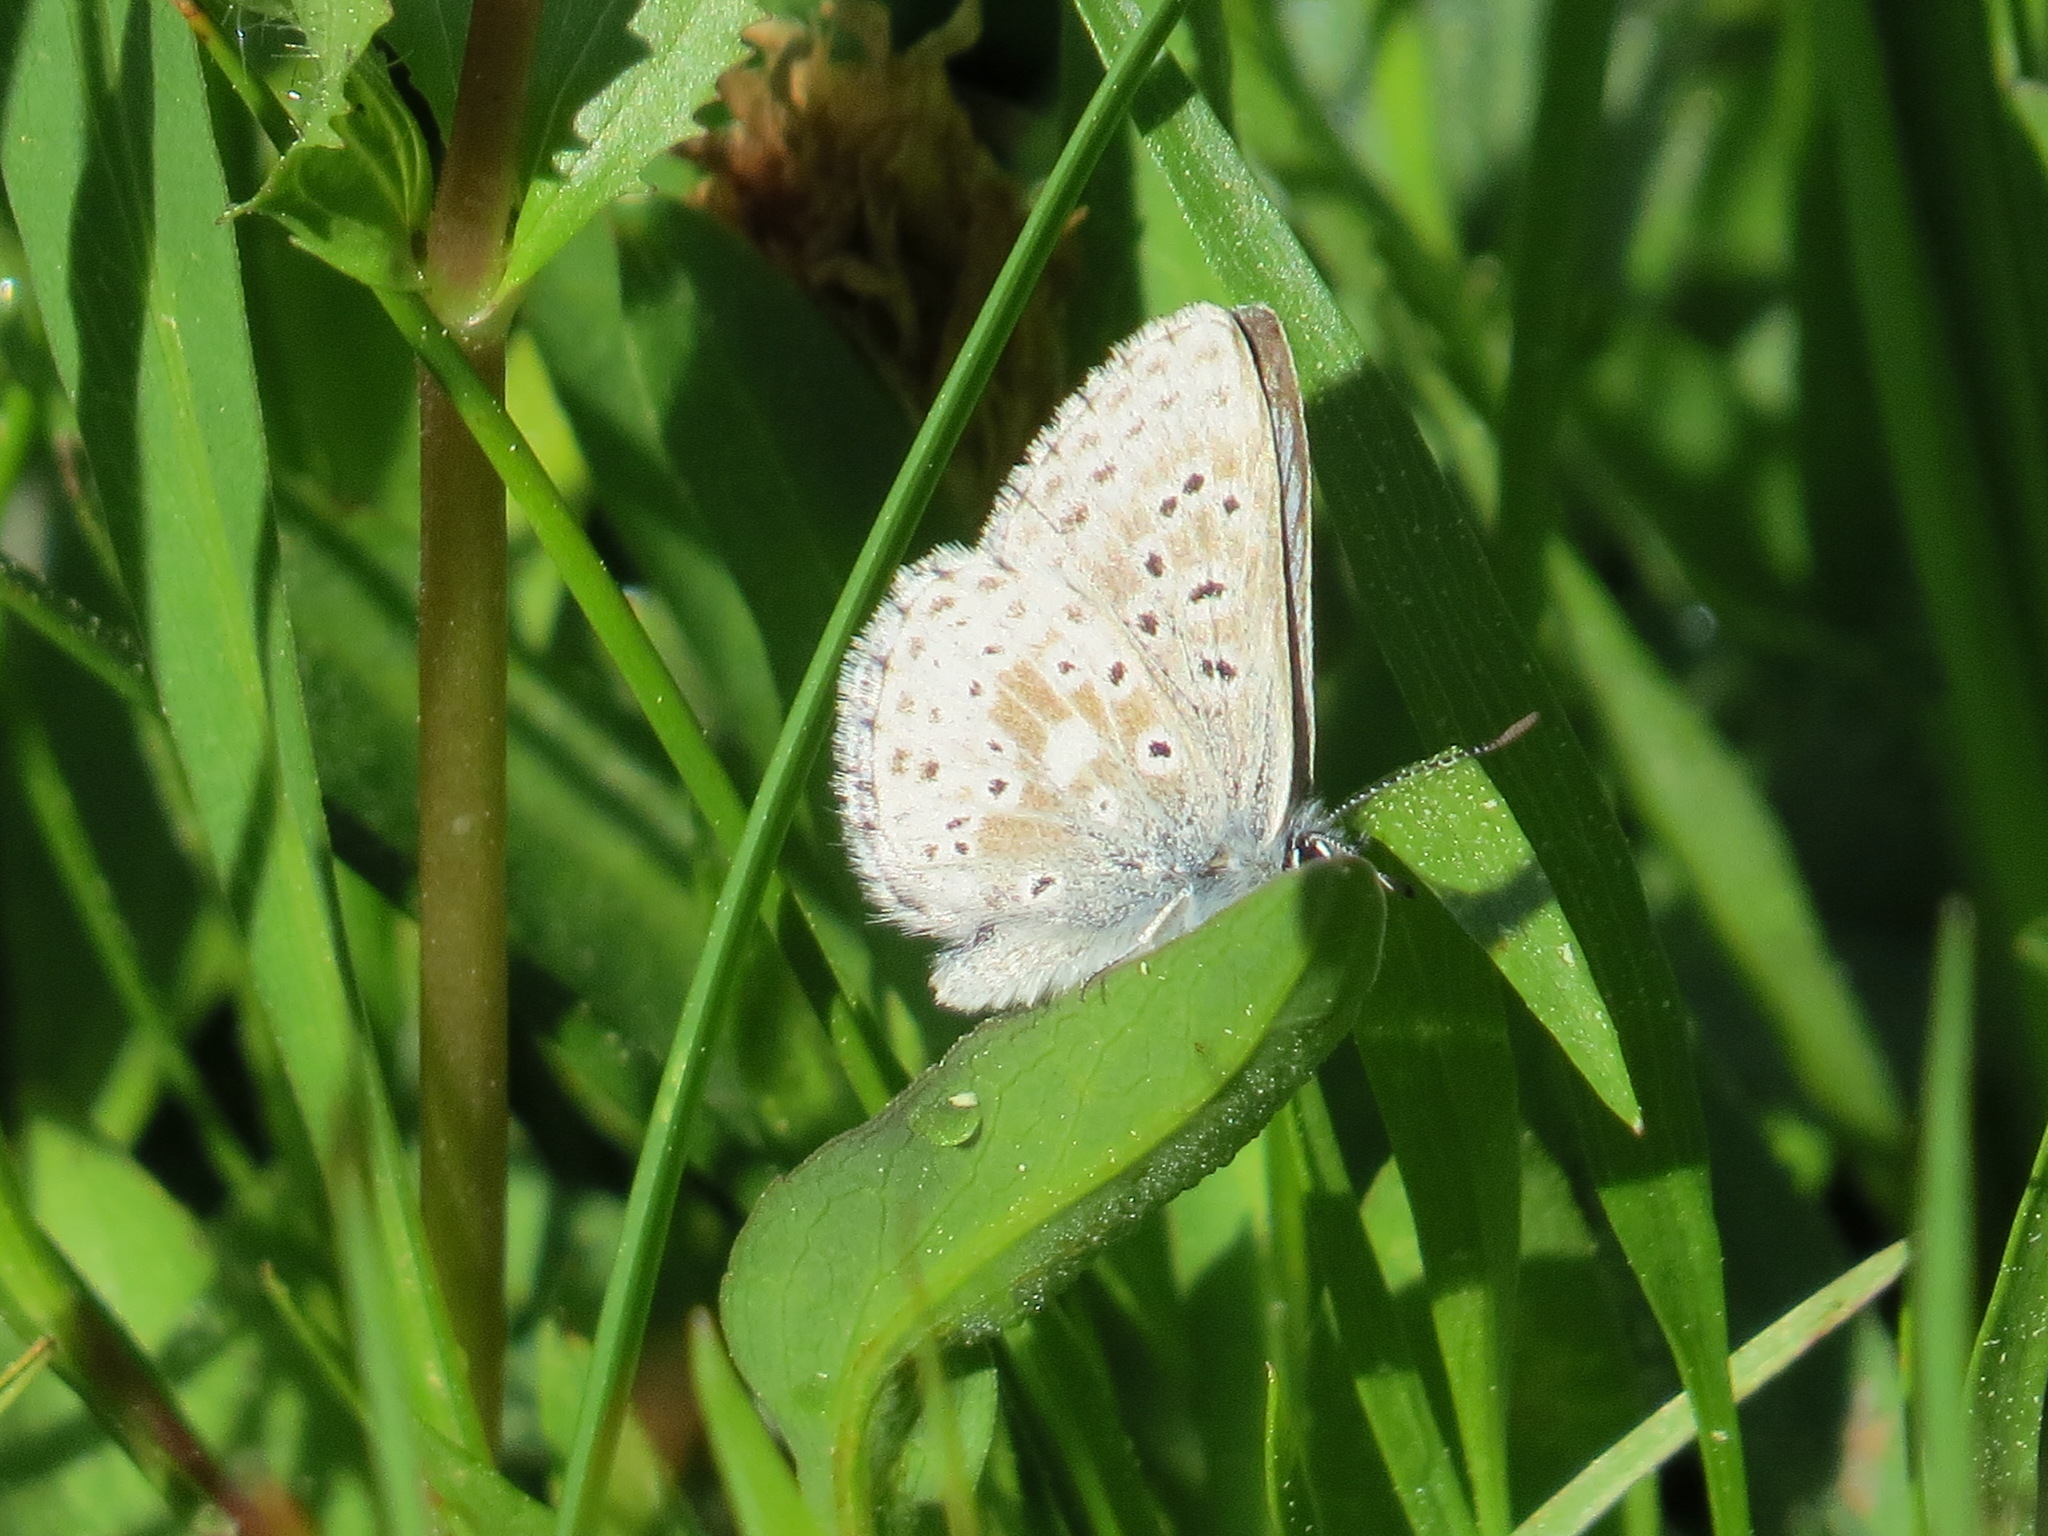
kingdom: Animalia
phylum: Arthropoda
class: Insecta
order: Lepidoptera
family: Lycaenidae
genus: Agriades
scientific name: Agriades podarce
